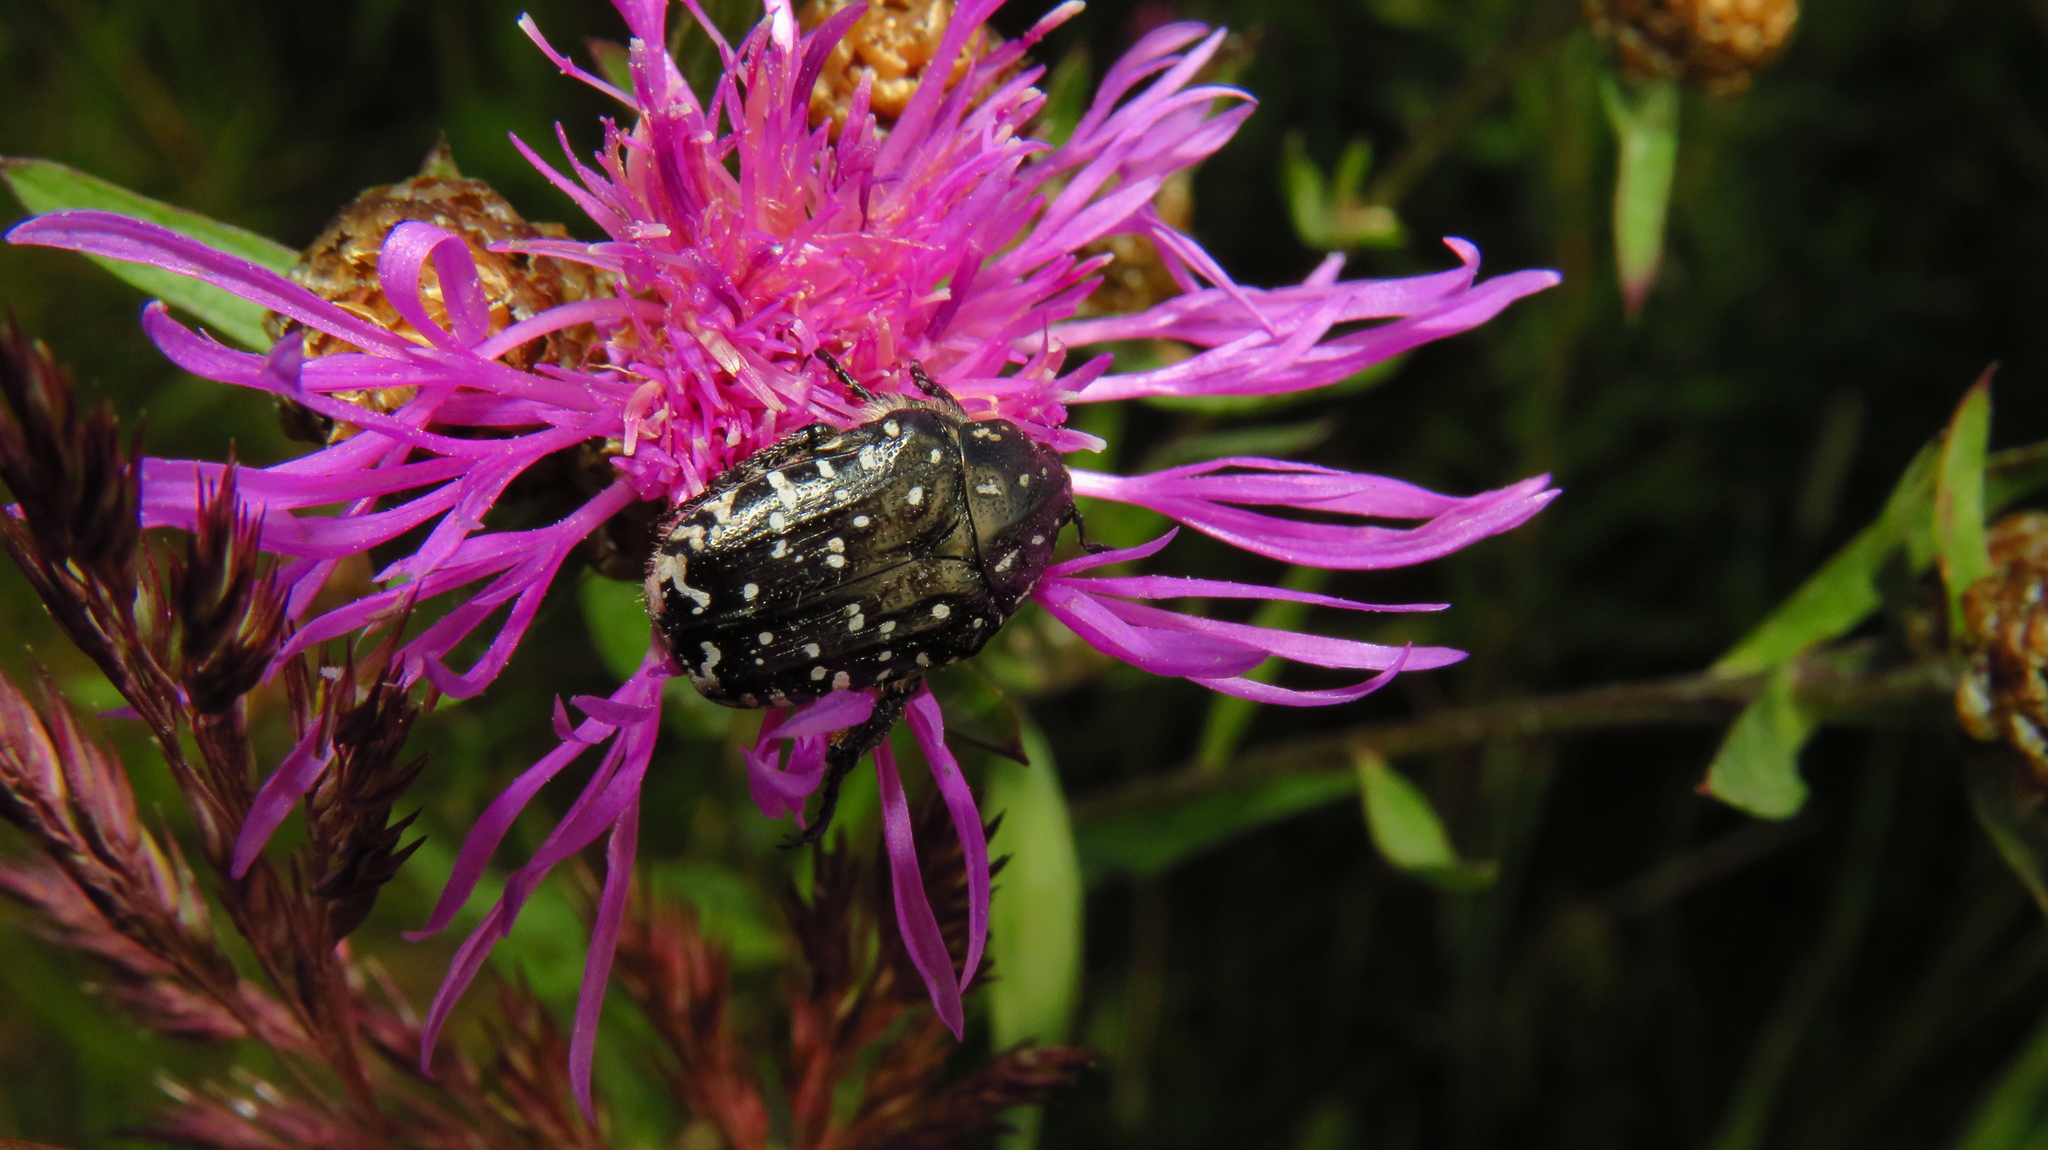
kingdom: Animalia
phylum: Arthropoda
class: Insecta
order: Coleoptera
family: Scarabaeidae
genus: Oxythyrea
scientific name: Oxythyrea funesta
